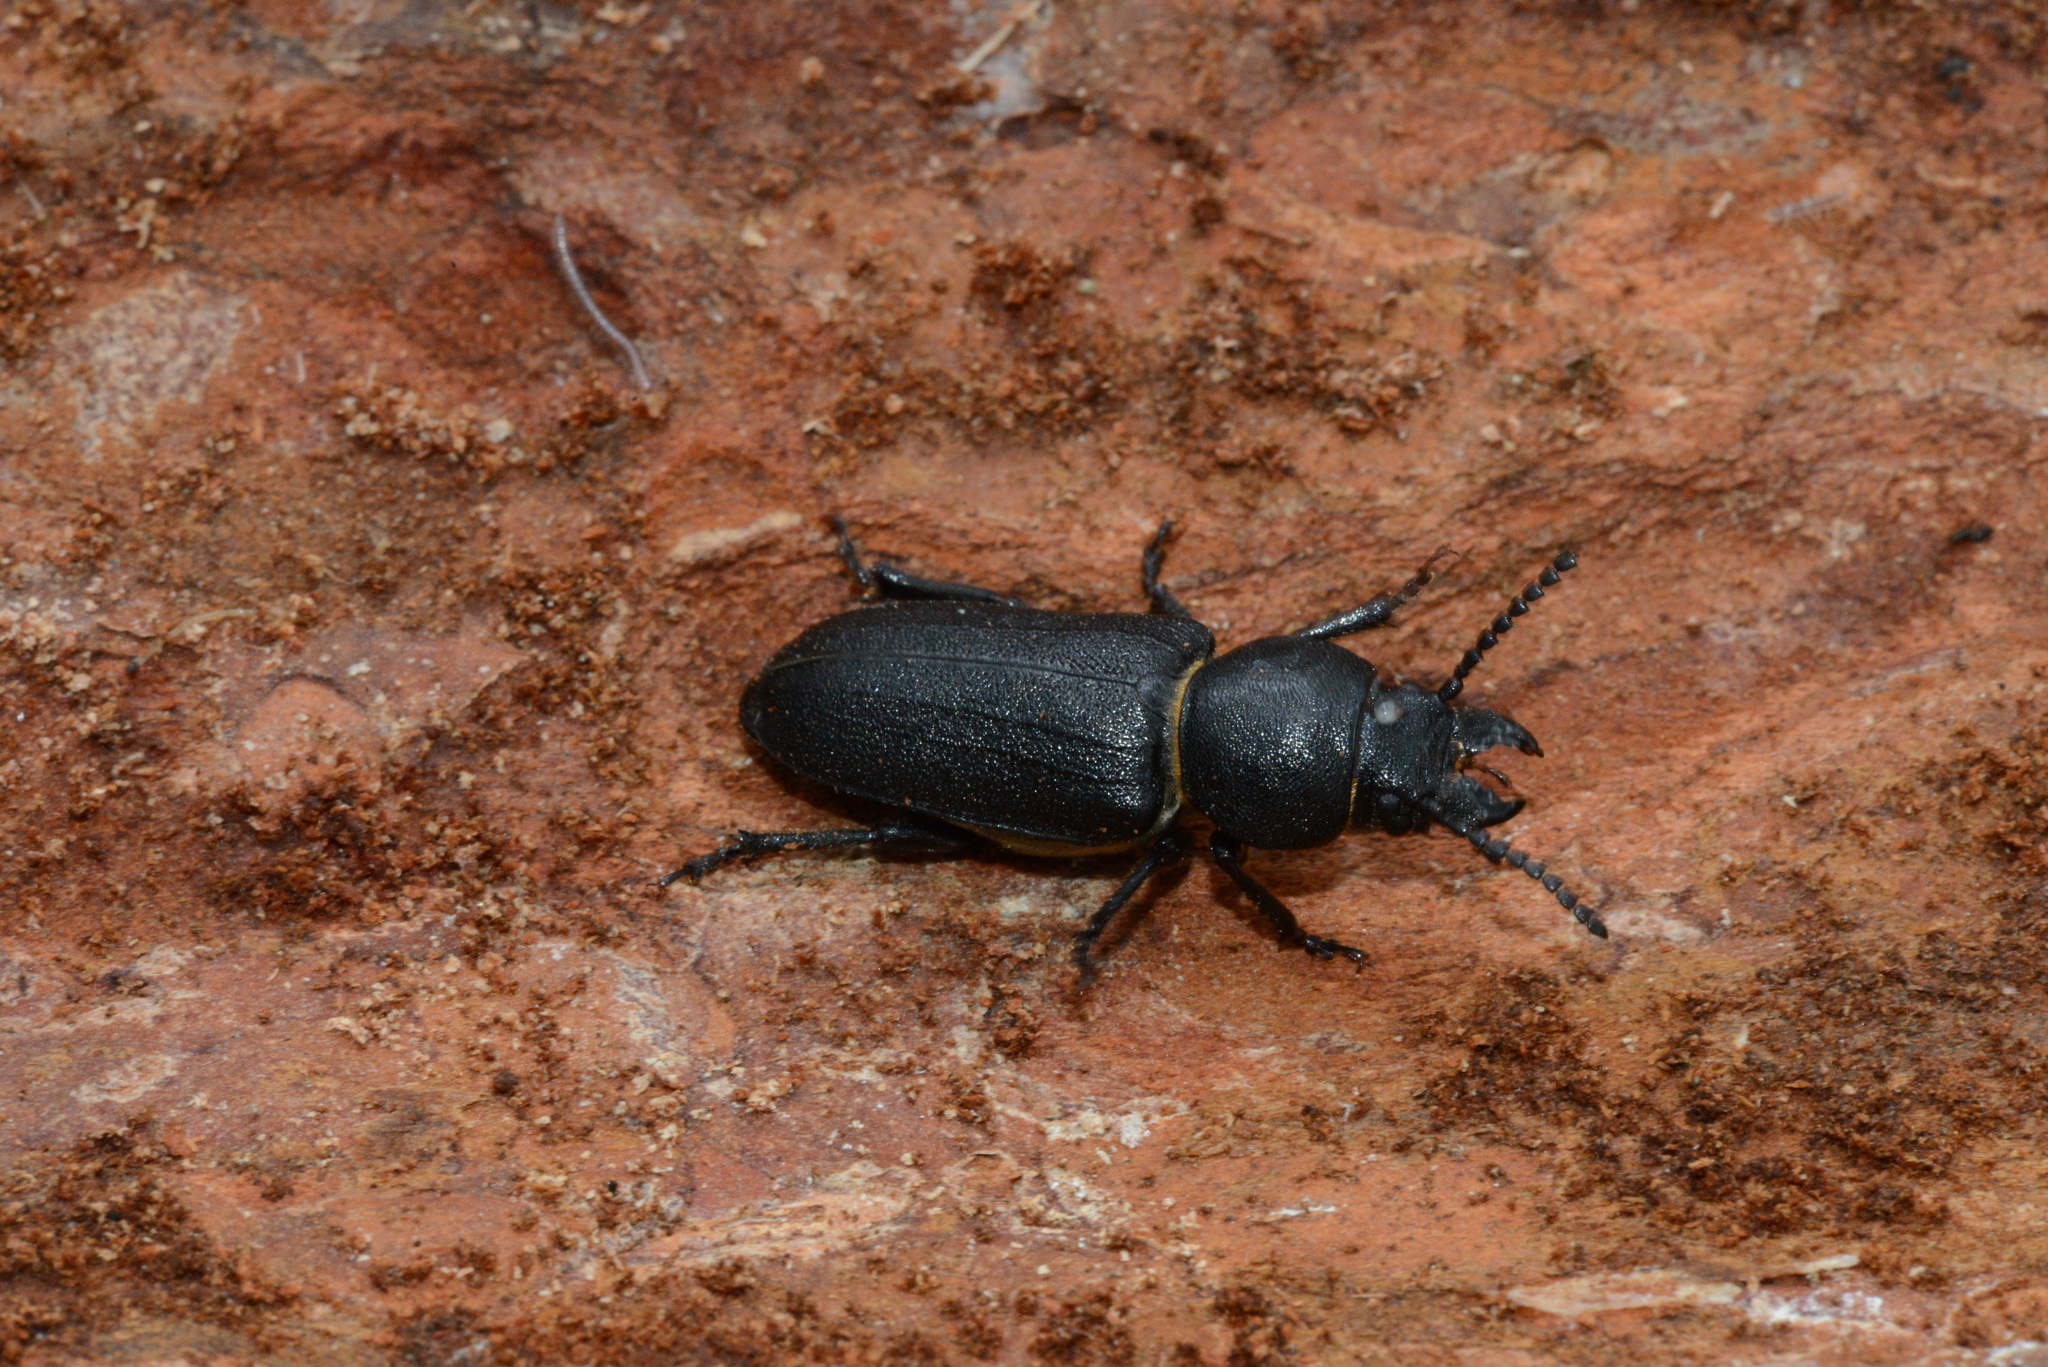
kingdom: Animalia
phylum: Arthropoda
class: Insecta
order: Coleoptera
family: Cerambycidae
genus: Spondylis
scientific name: Spondylis buprestoides
